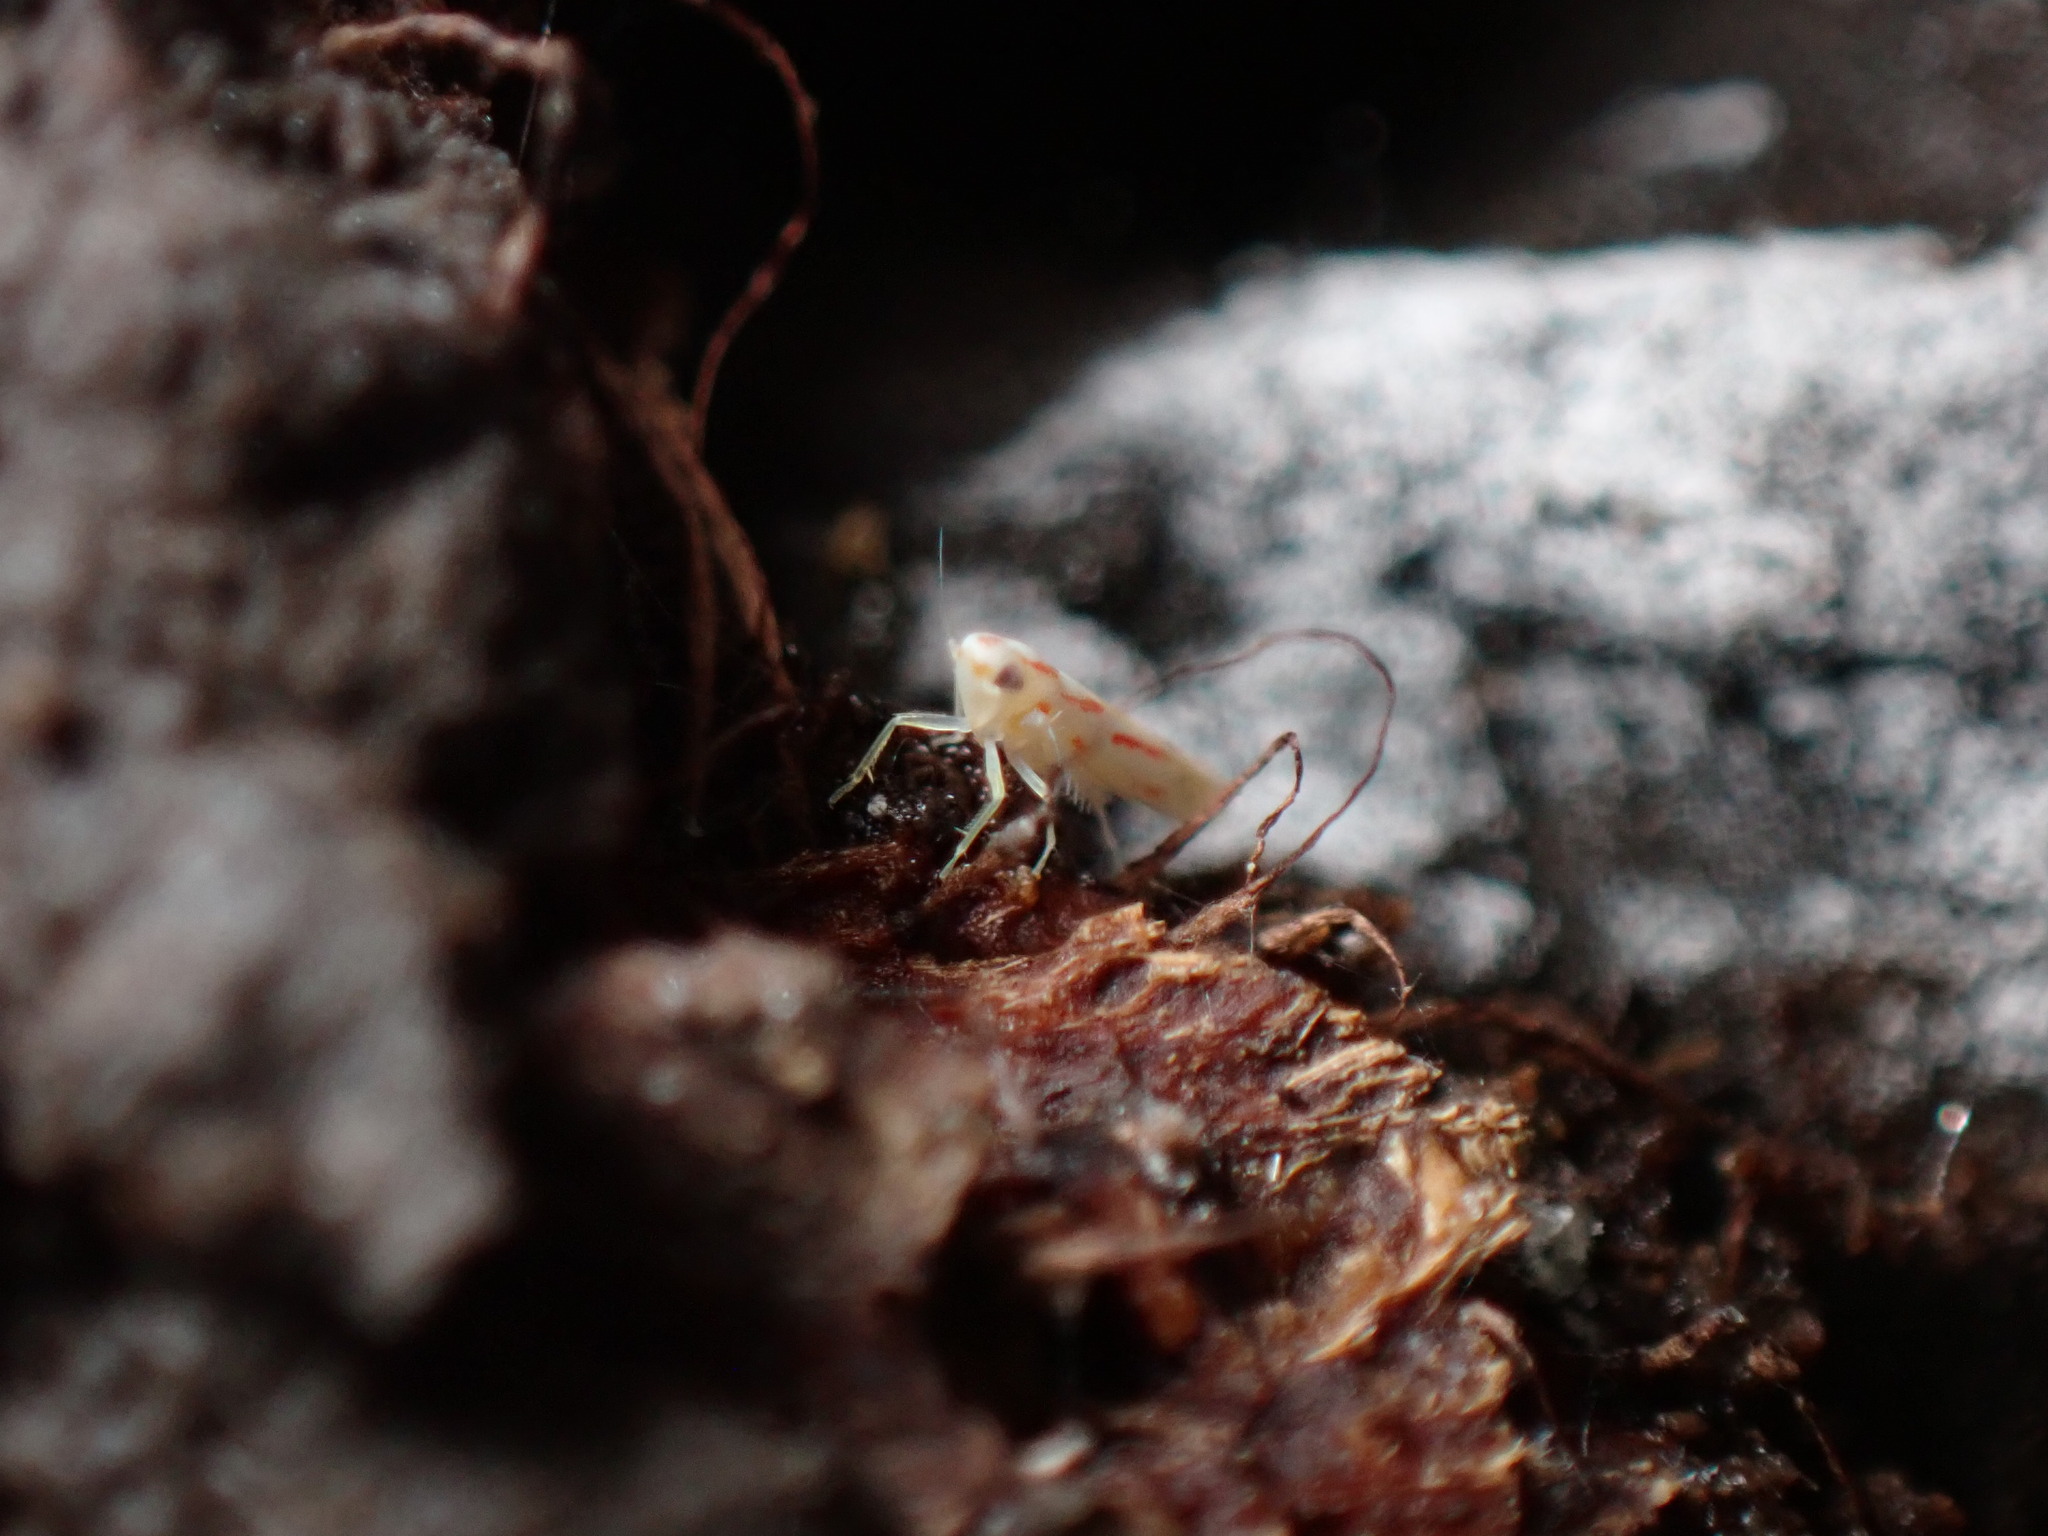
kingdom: Animalia
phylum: Arthropoda
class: Insecta
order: Hemiptera
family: Cicadellidae
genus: Dikrella
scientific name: Dikrella cruentata
